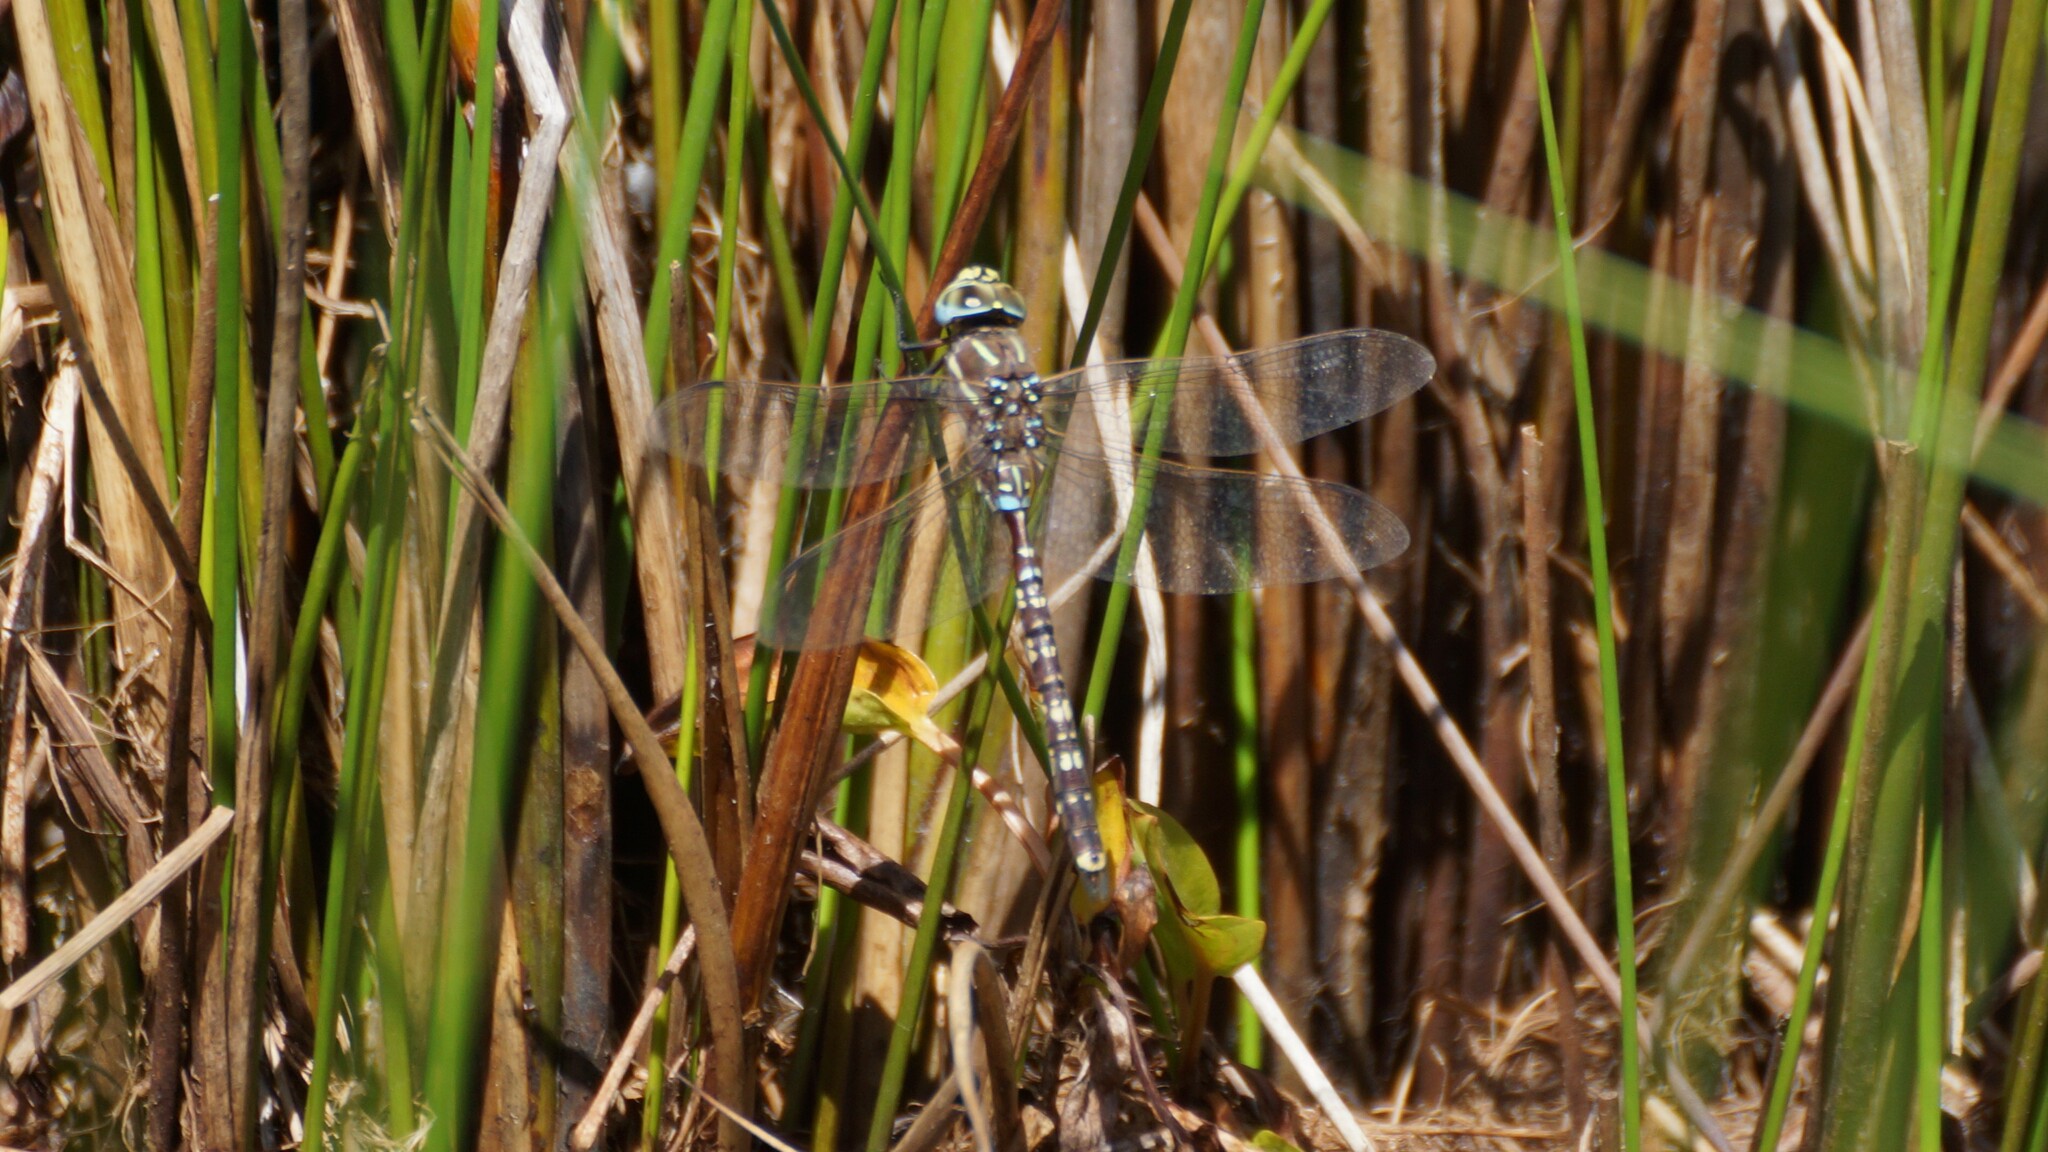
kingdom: Animalia
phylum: Arthropoda
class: Insecta
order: Odonata
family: Aeshnidae
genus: Aeshna
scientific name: Aeshna brevistyla
